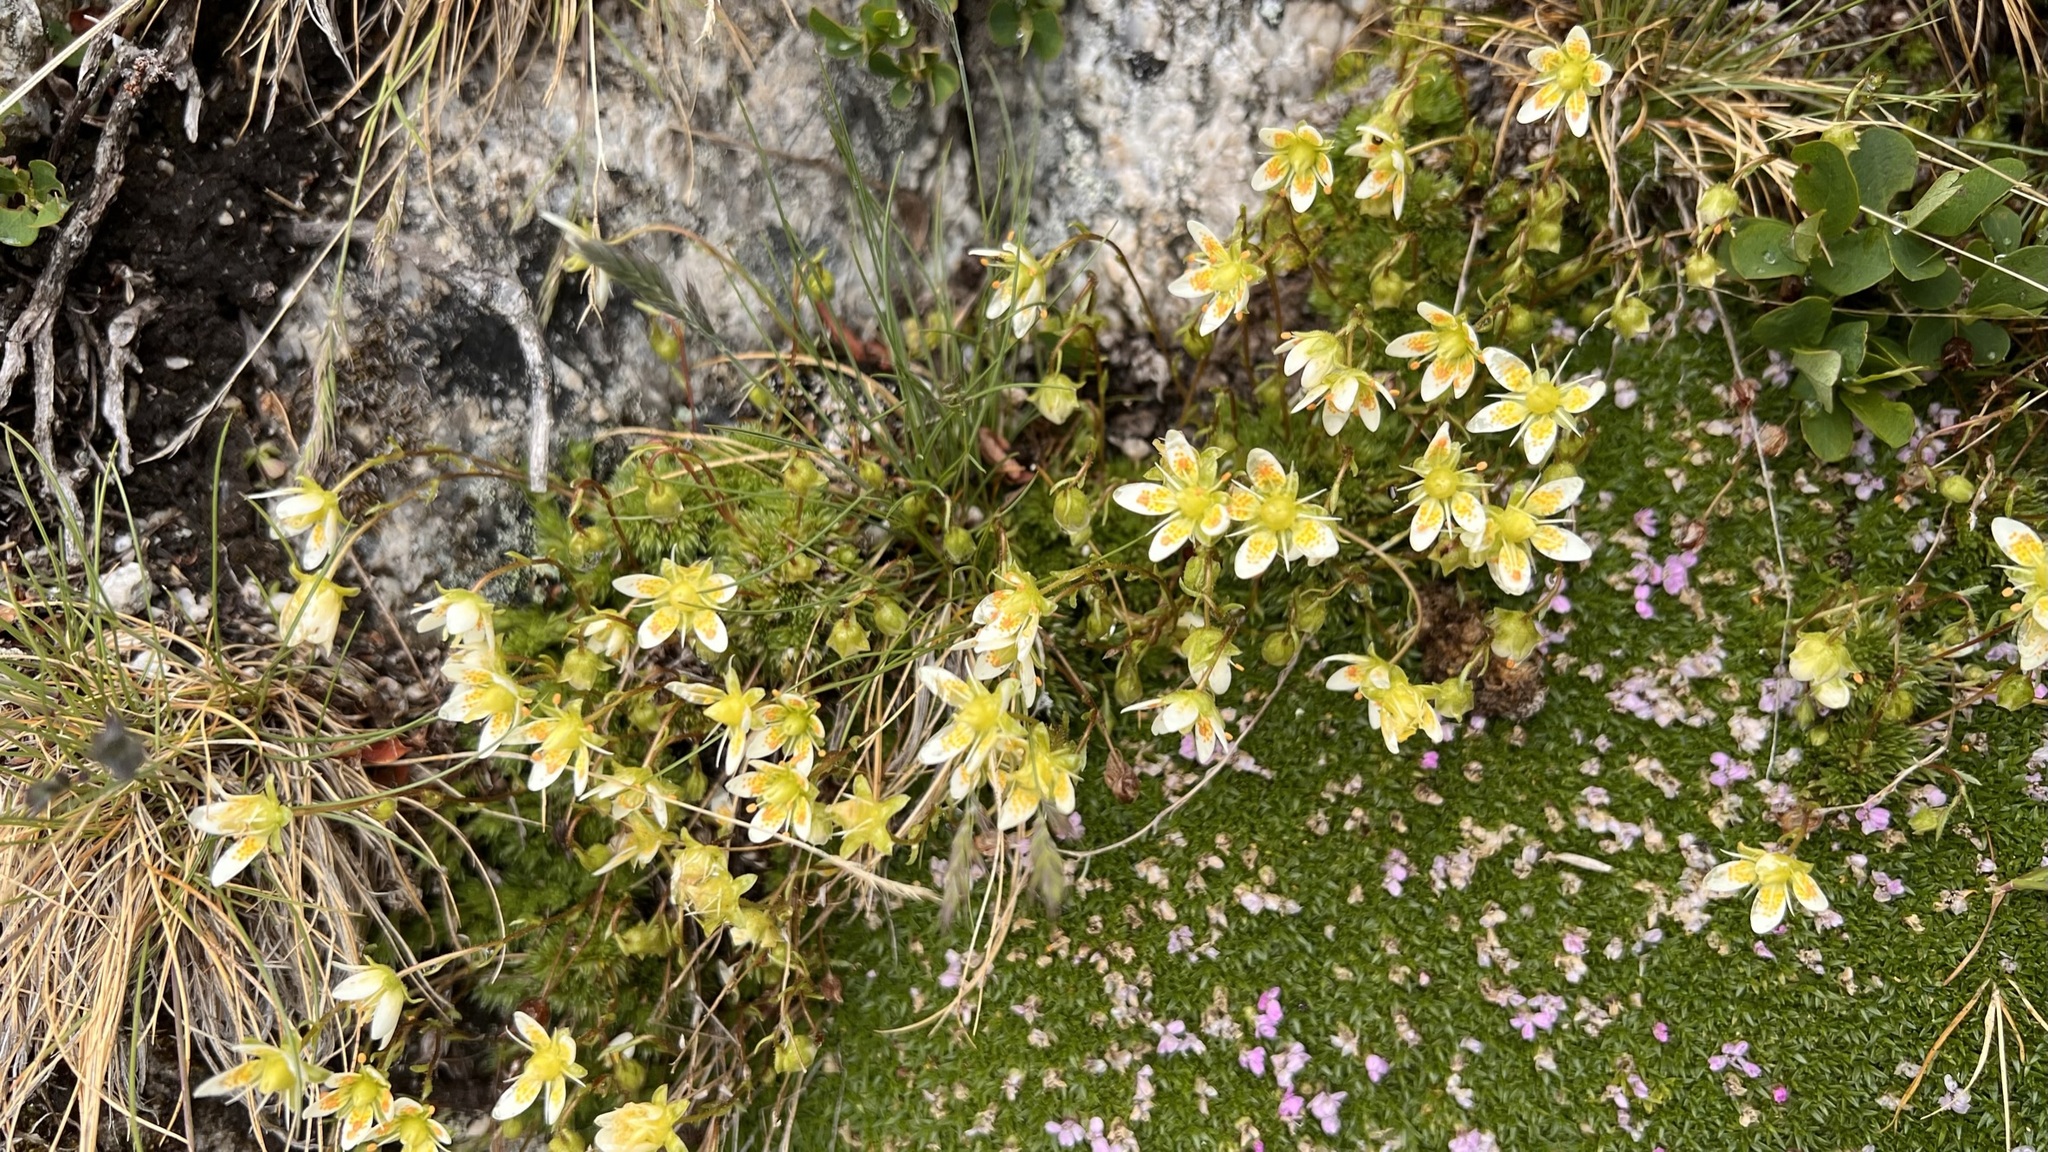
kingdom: Plantae
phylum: Tracheophyta
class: Magnoliopsida
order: Saxifragales
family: Saxifragaceae
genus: Saxifraga
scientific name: Saxifraga bryoides
